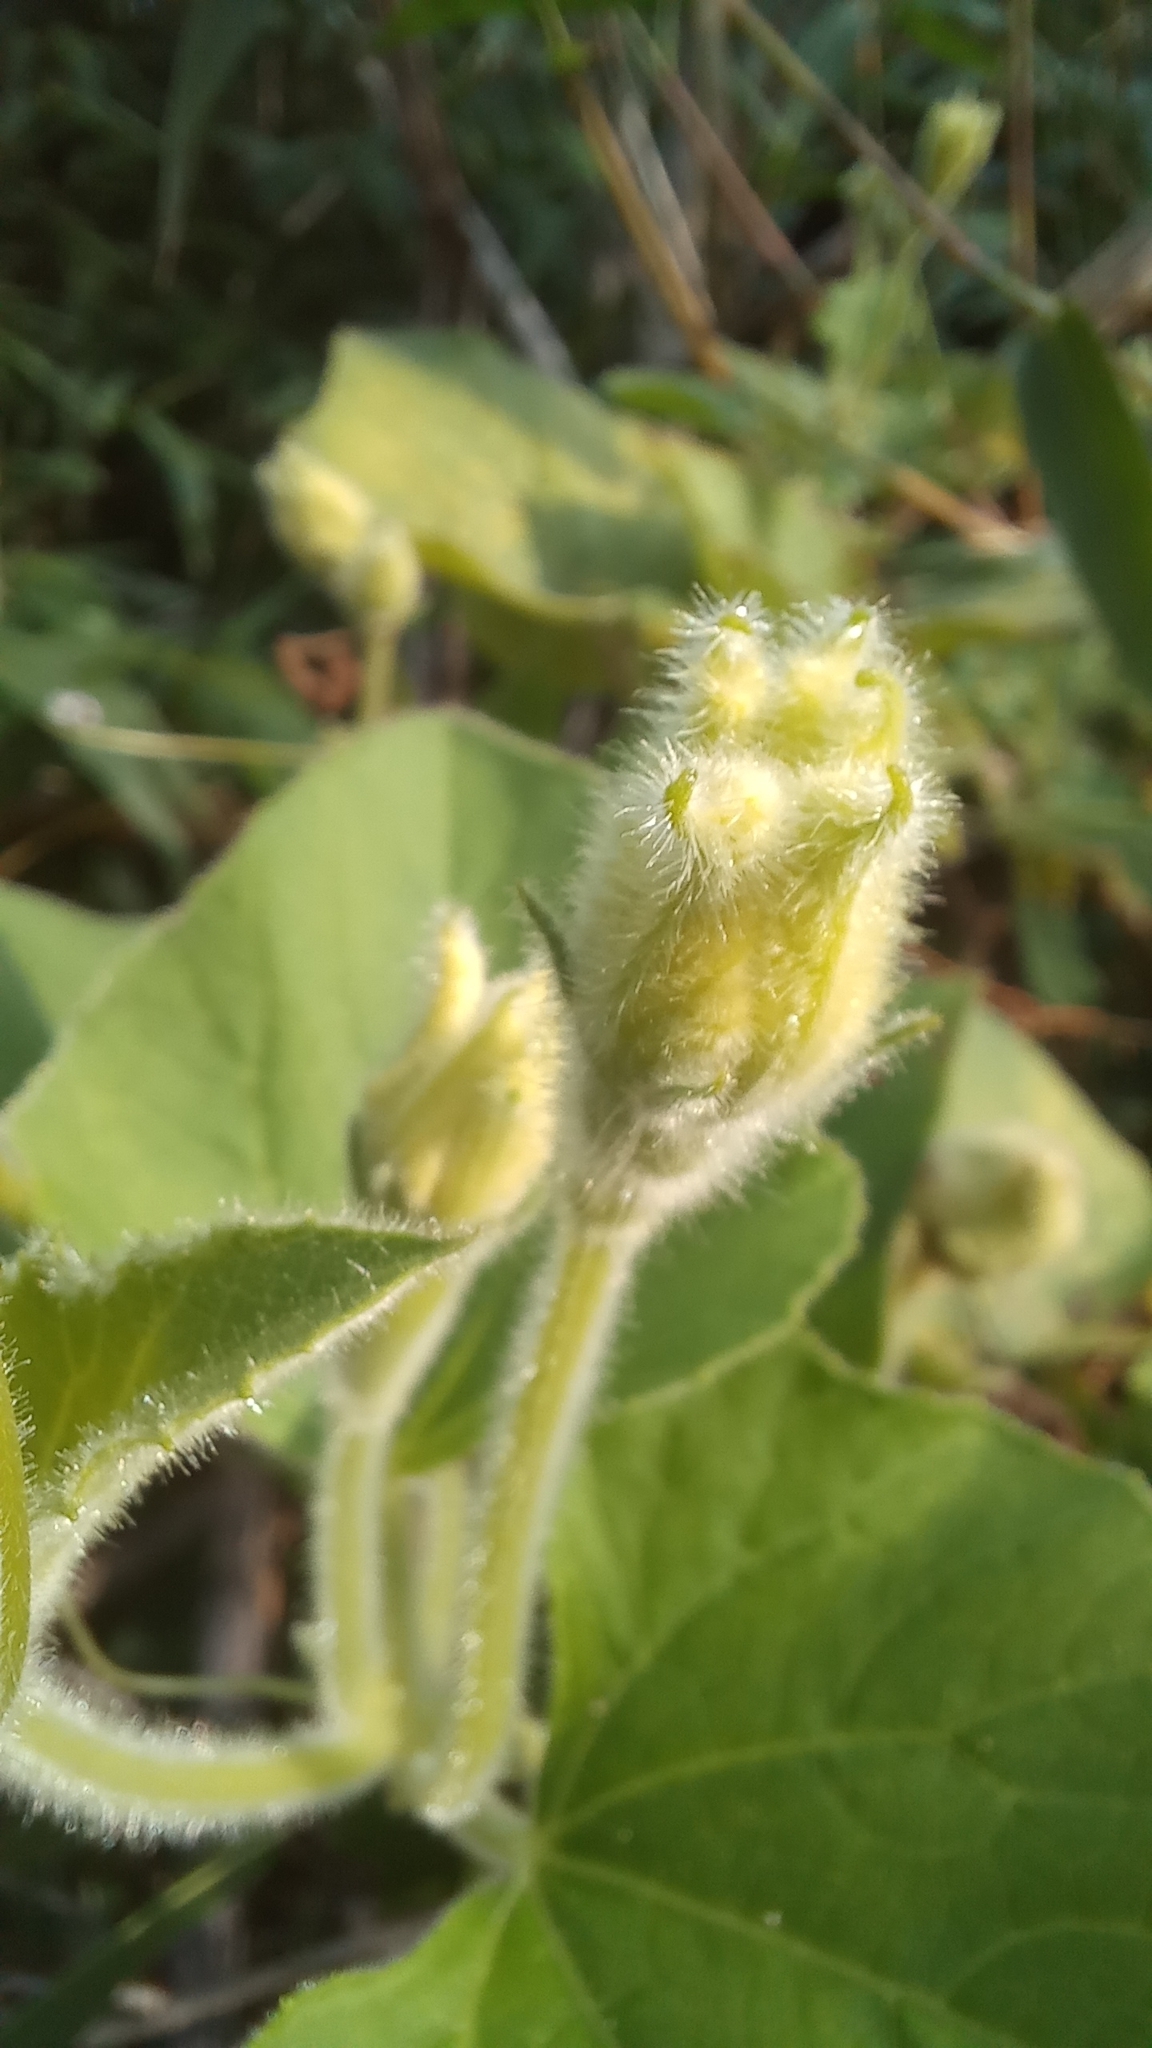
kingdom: Plantae
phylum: Tracheophyta
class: Magnoliopsida
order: Cucurbitales
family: Cucurbitaceae
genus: Lagenaria
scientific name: Lagenaria siceraria
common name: Bottle gourd
